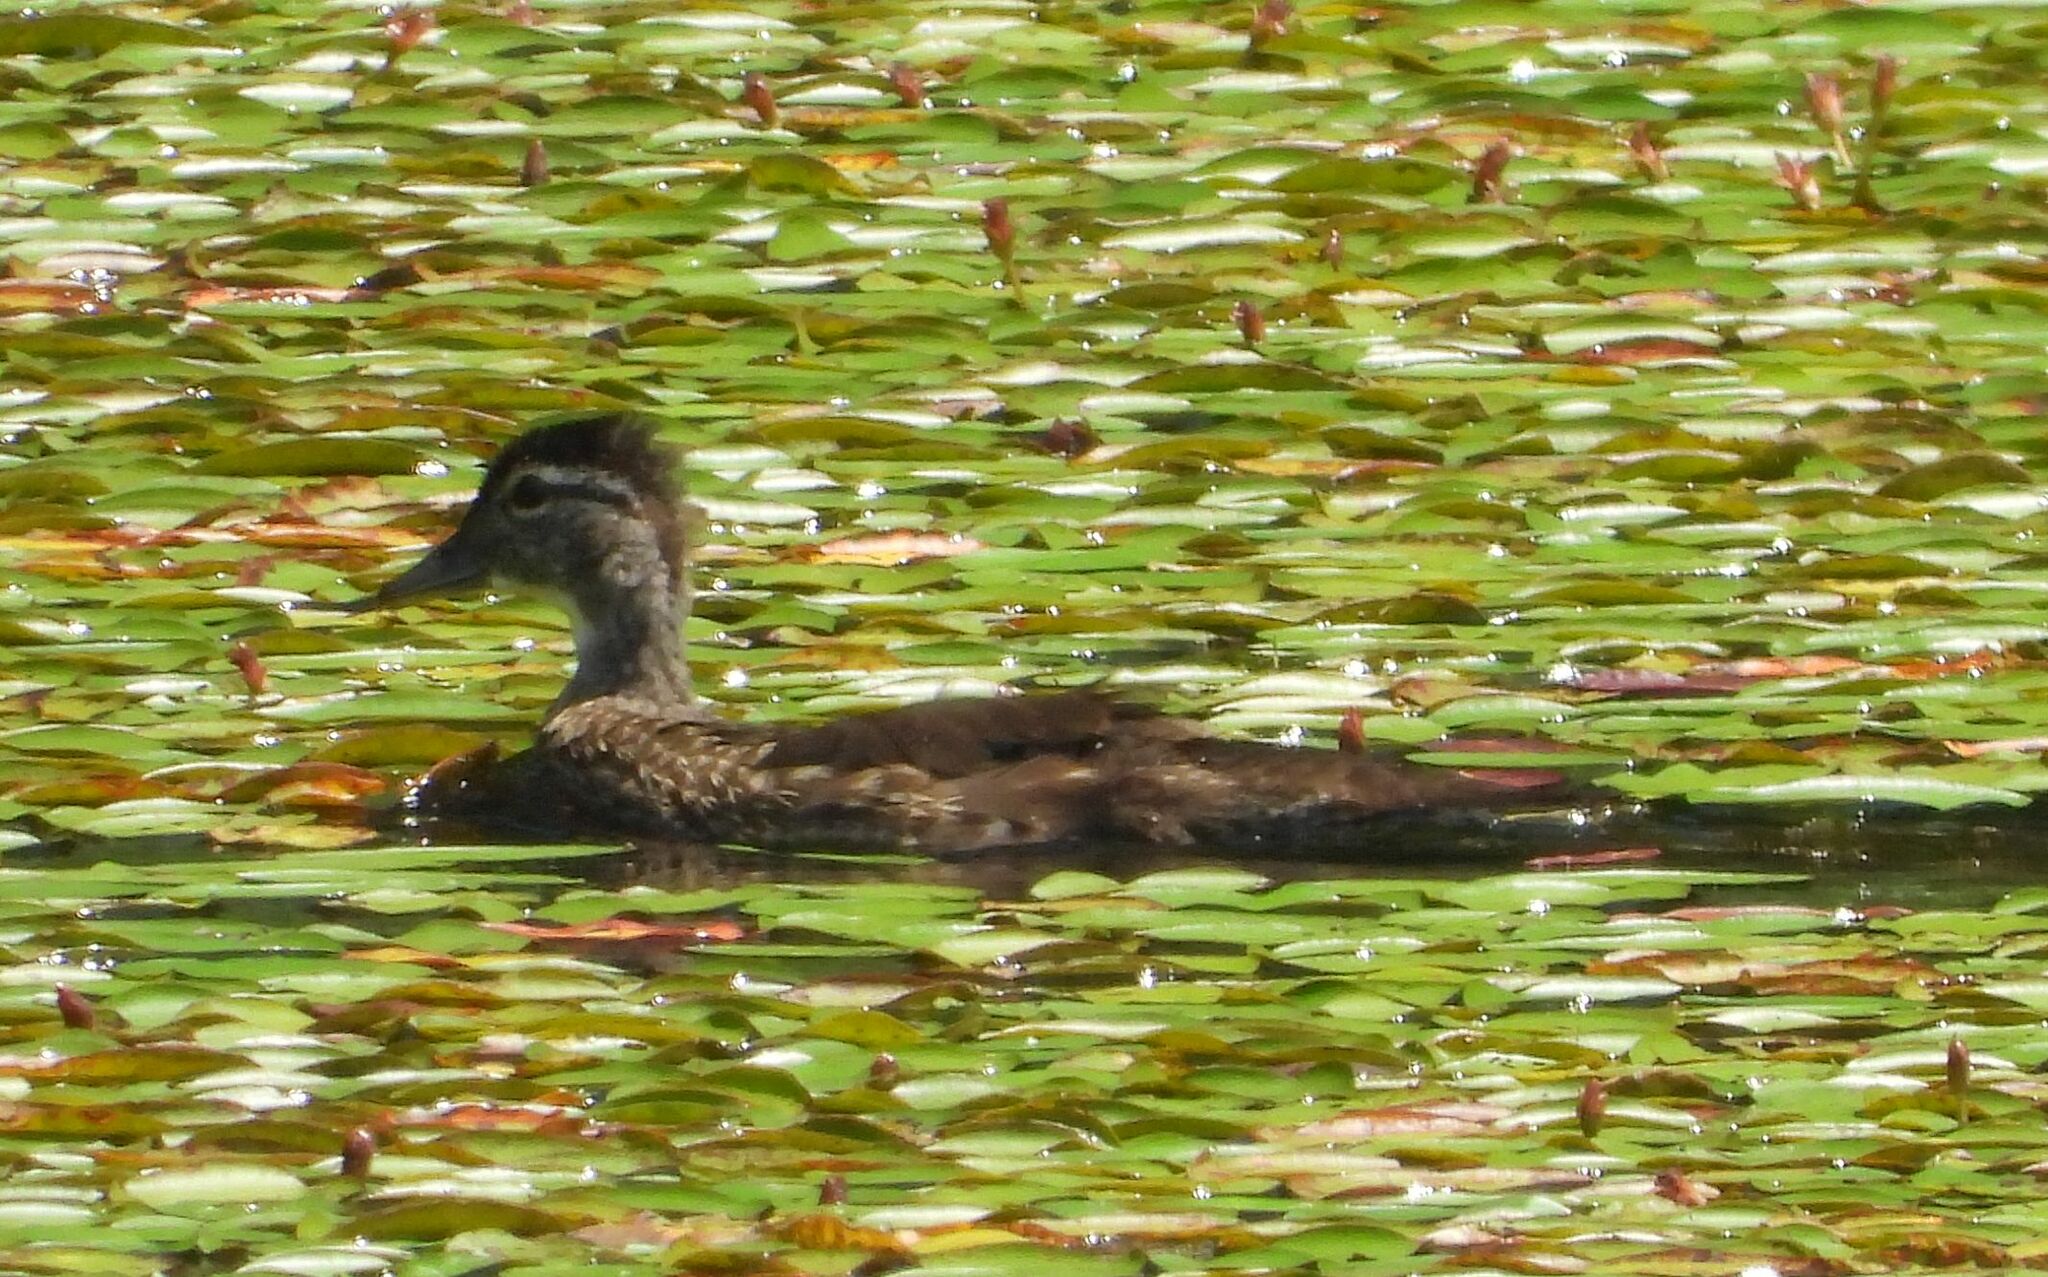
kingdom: Animalia
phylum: Chordata
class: Aves
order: Anseriformes
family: Anatidae
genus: Aix
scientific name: Aix sponsa
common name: Wood duck
